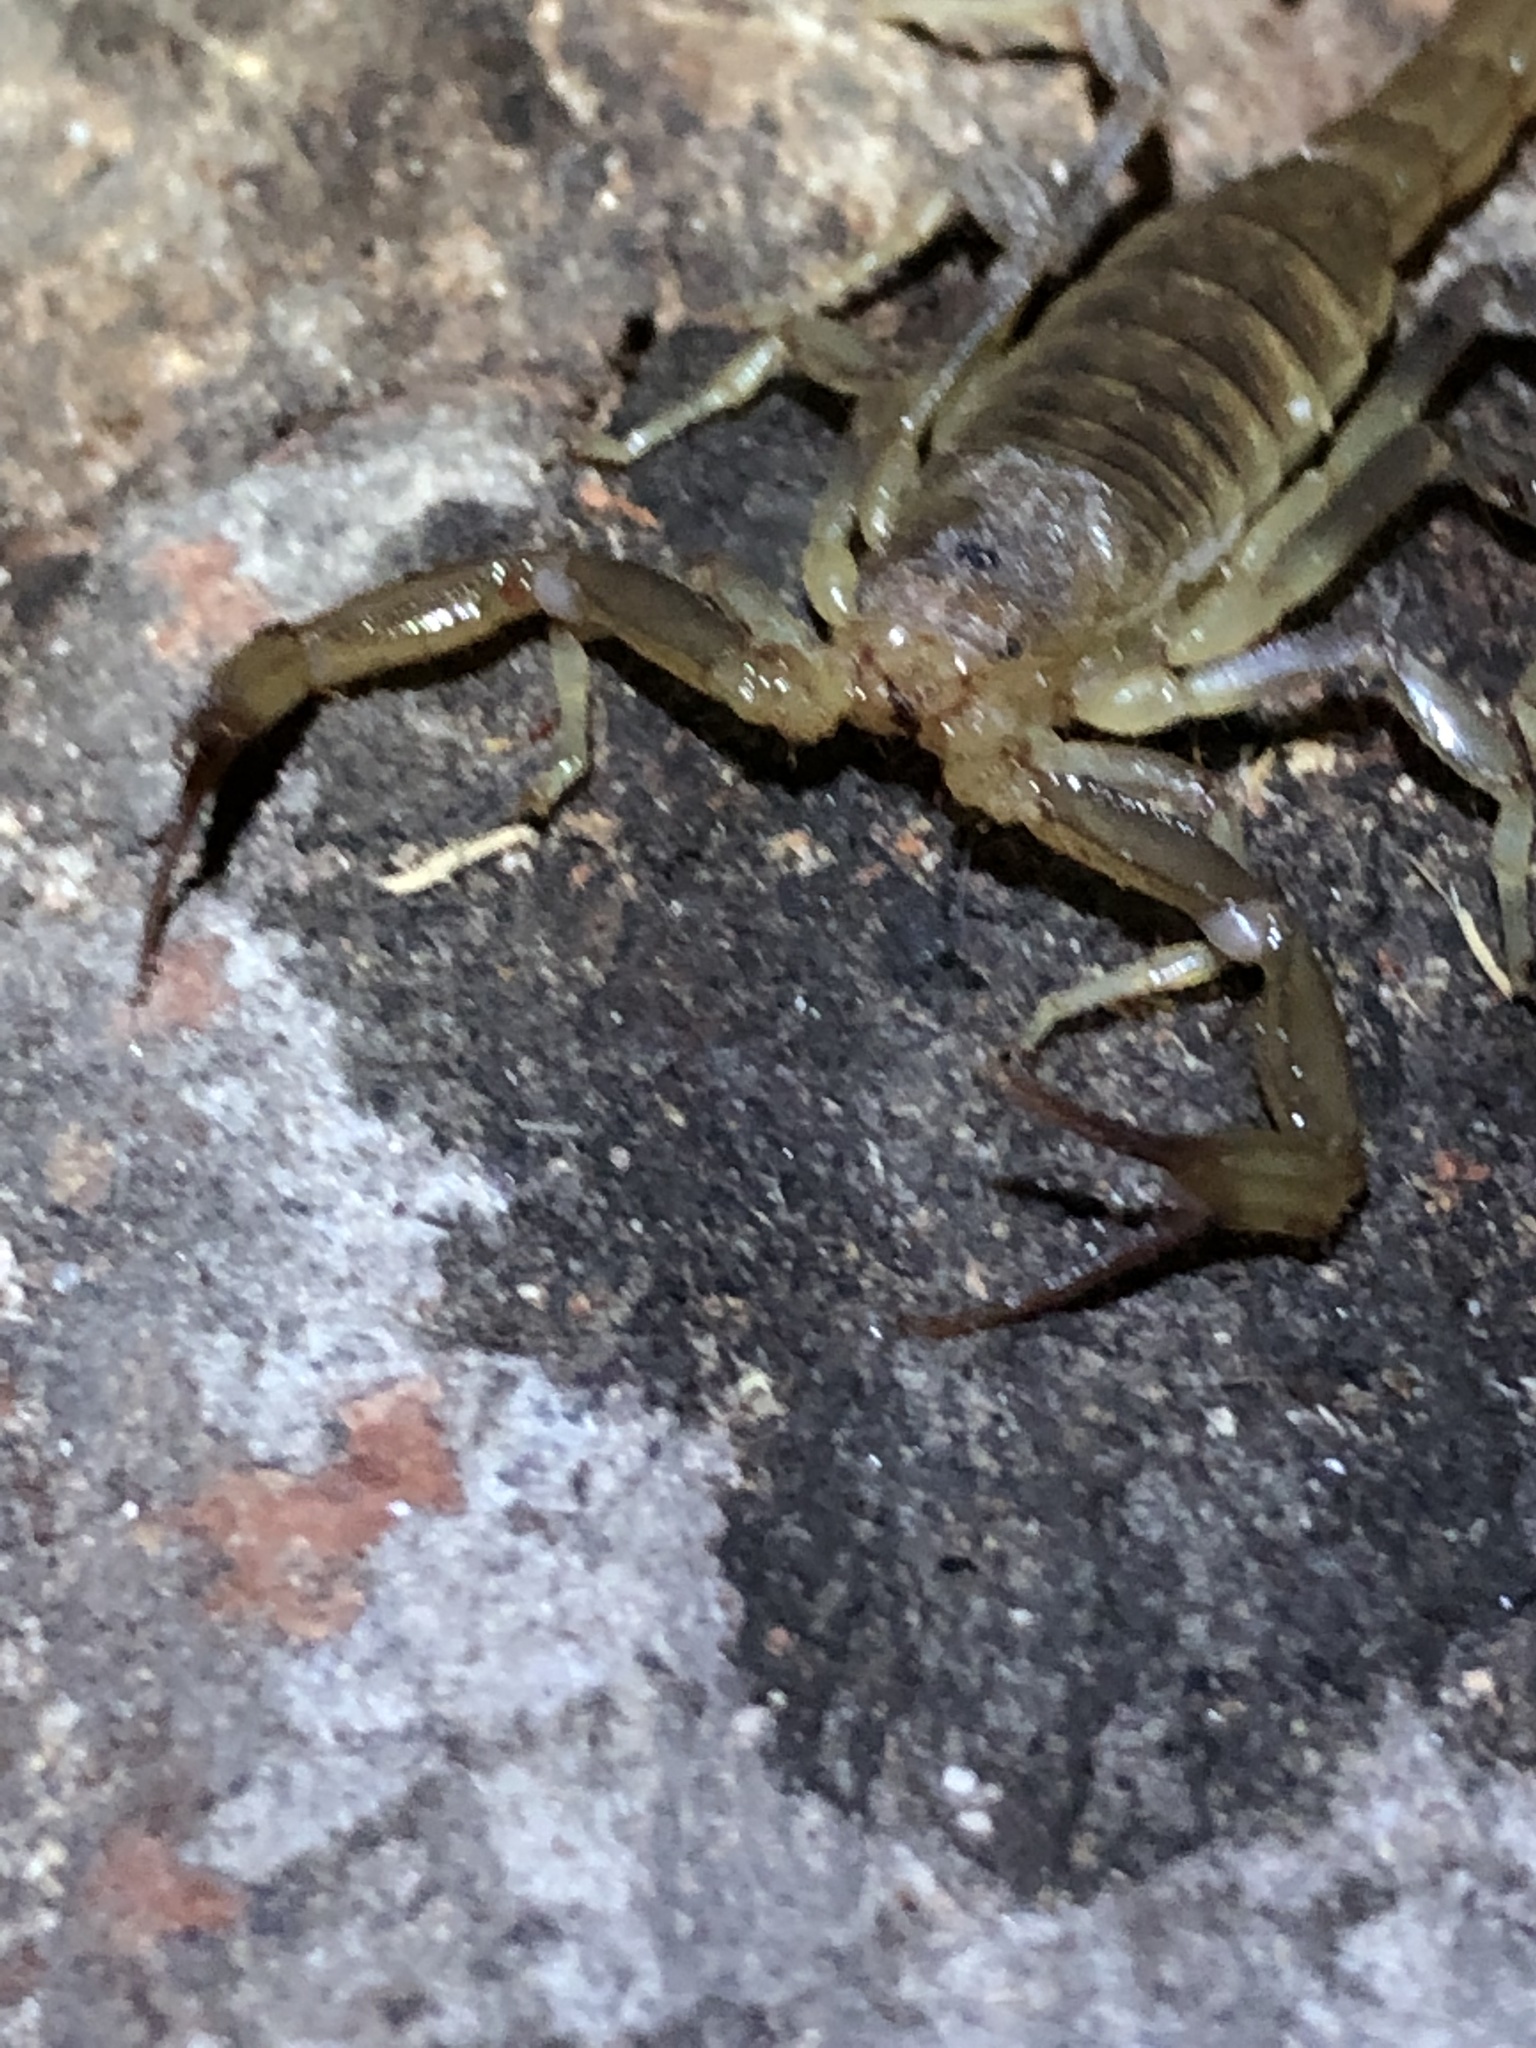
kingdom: Animalia
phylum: Arthropoda
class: Arachnida
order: Scorpiones
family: Vaejovidae
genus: Paravaejovis
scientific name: Paravaejovis puritanus
